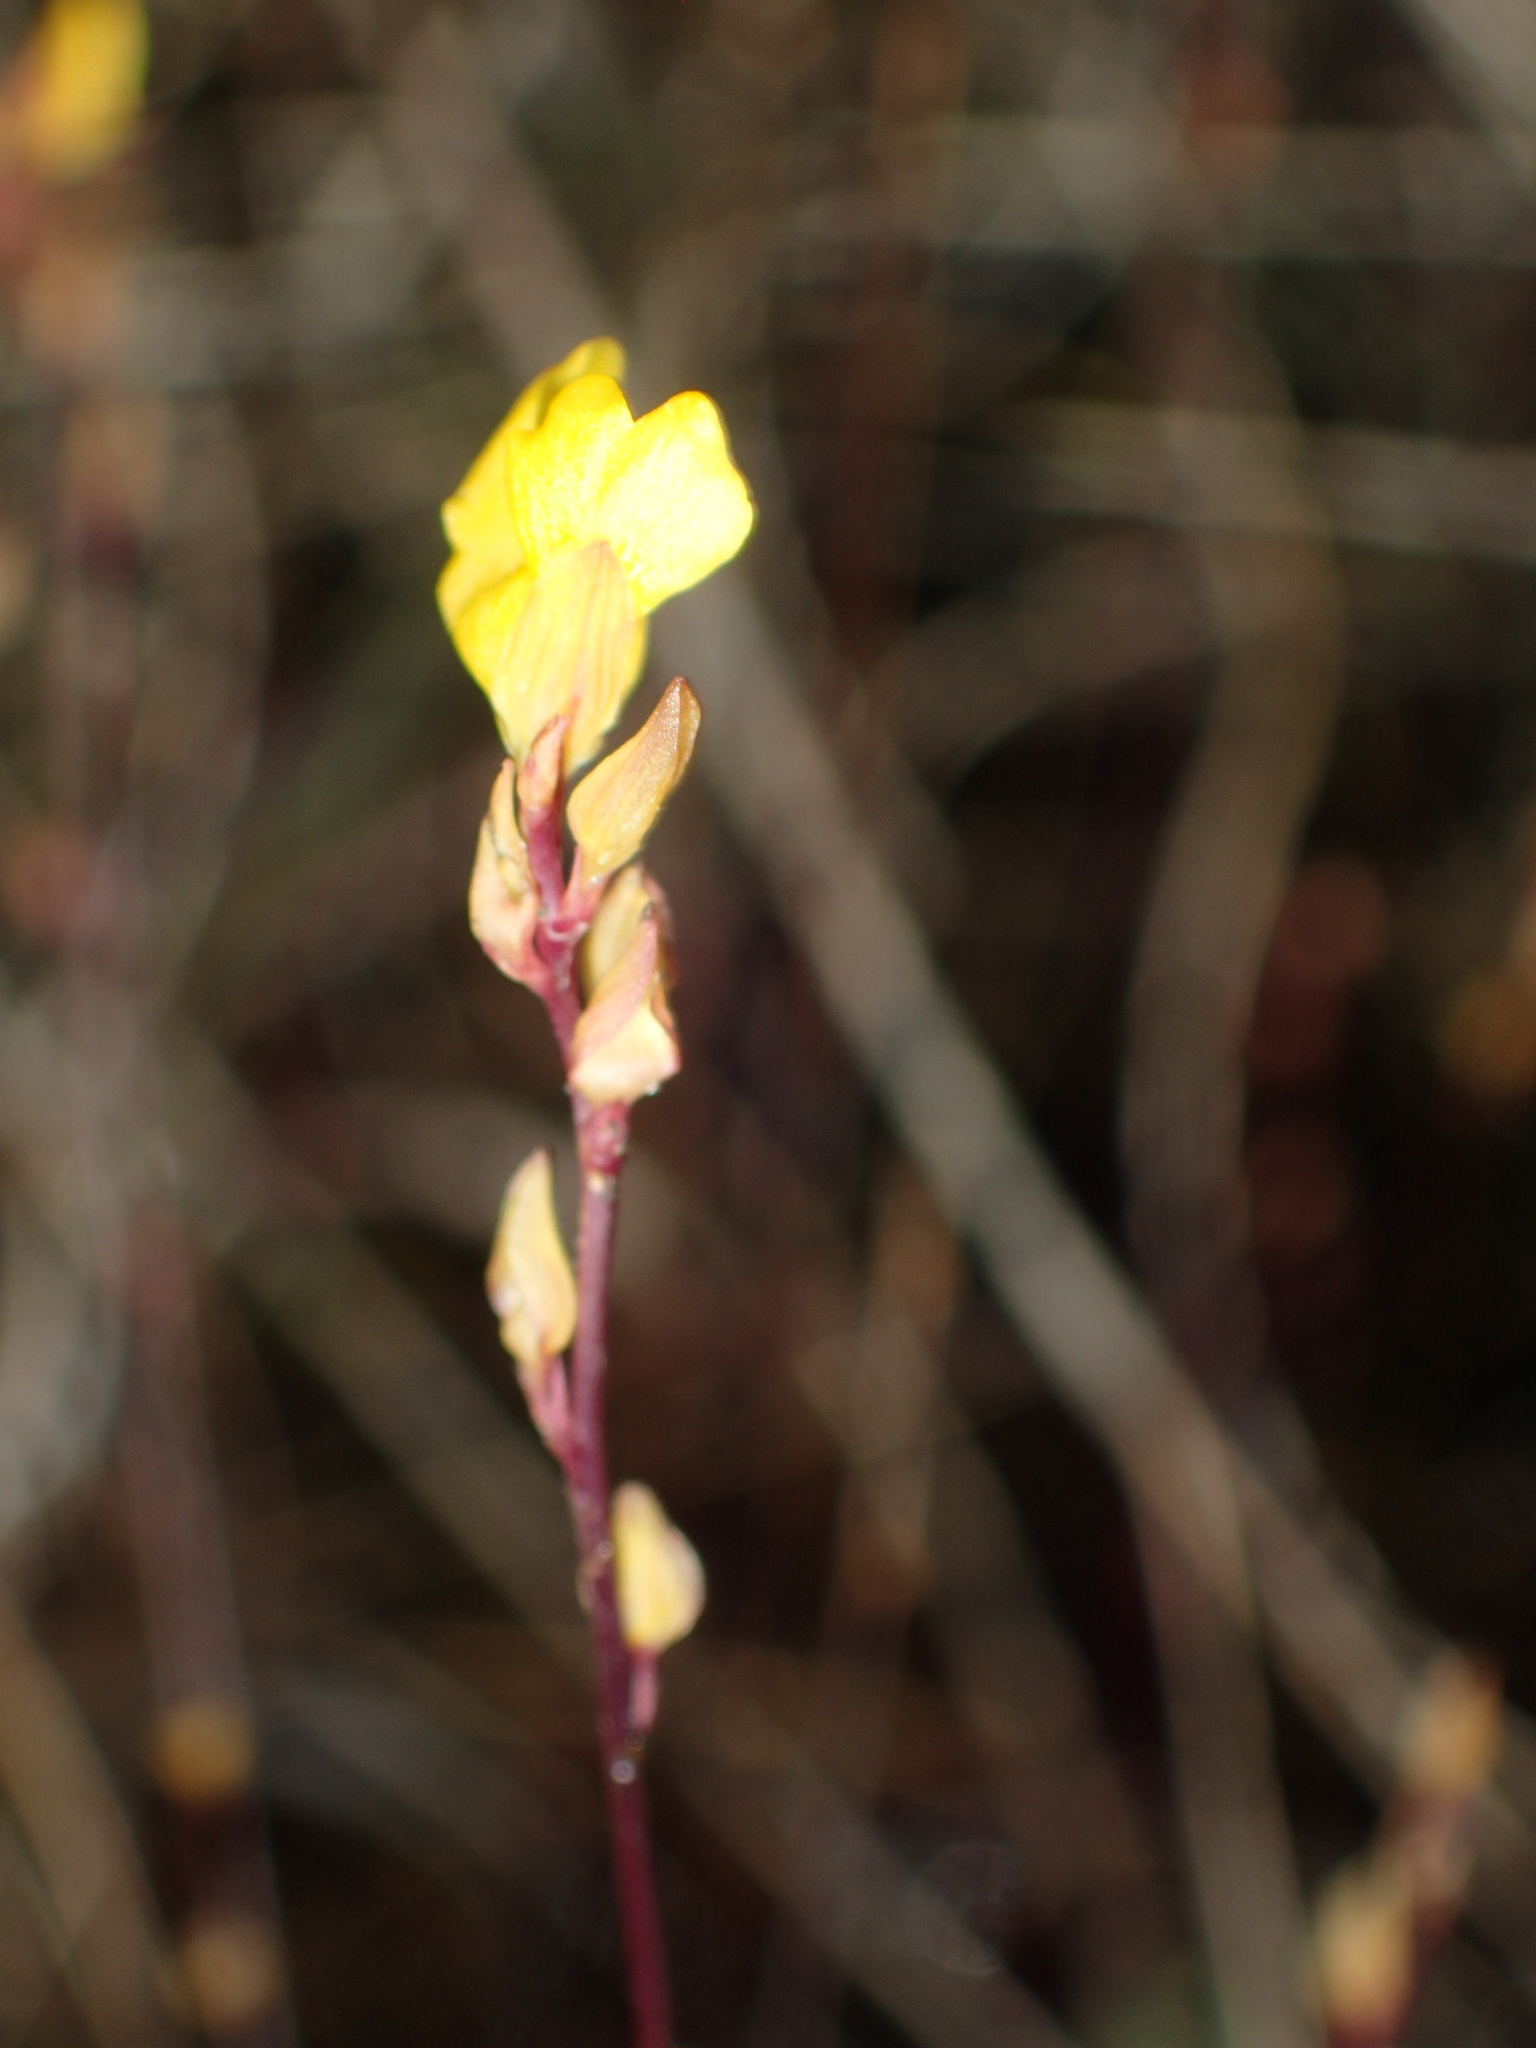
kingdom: Plantae
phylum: Tracheophyta
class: Magnoliopsida
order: Lamiales
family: Lentibulariaceae
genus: Utricularia
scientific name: Utricularia juncea
